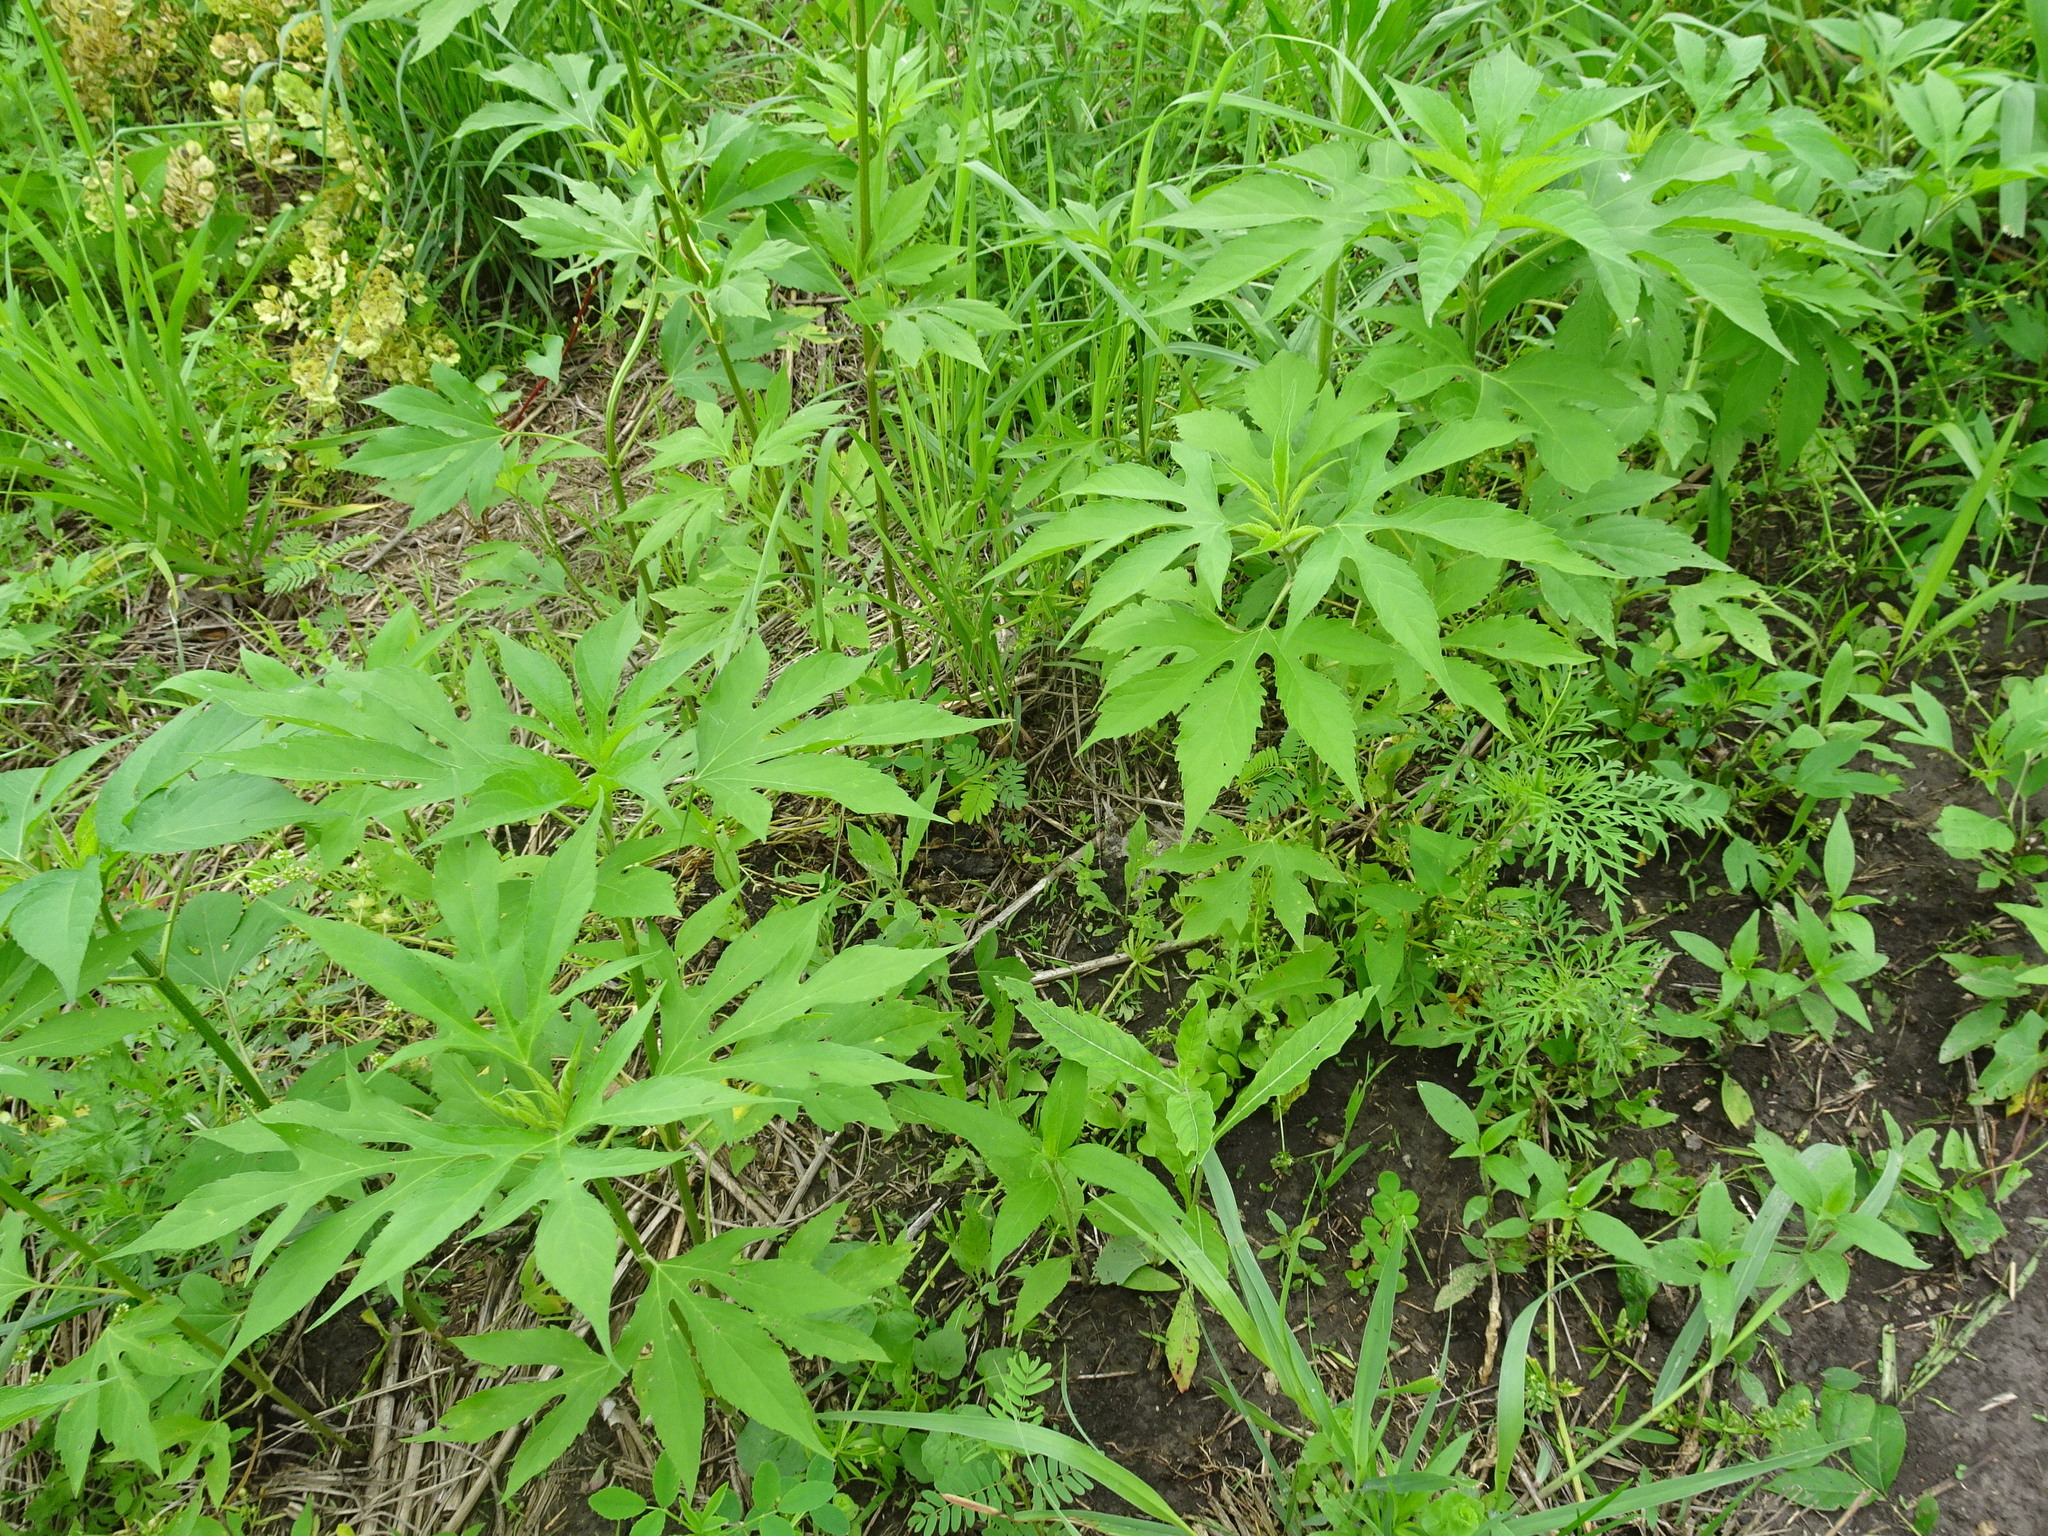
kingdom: Plantae
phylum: Tracheophyta
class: Magnoliopsida
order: Asterales
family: Asteraceae
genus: Ambrosia
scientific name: Ambrosia trifida
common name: Giant ragweed
